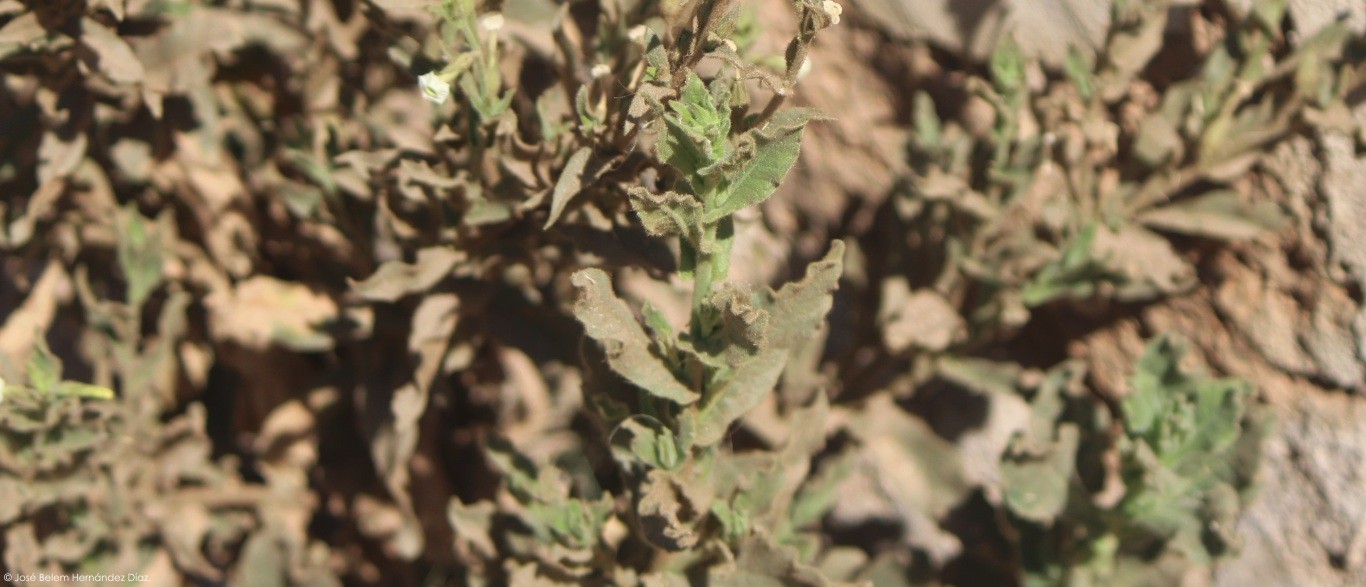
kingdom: Plantae
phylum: Tracheophyta
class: Magnoliopsida
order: Solanales
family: Solanaceae
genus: Nicotiana
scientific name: Nicotiana obtusifolia
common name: Desert tobacco
